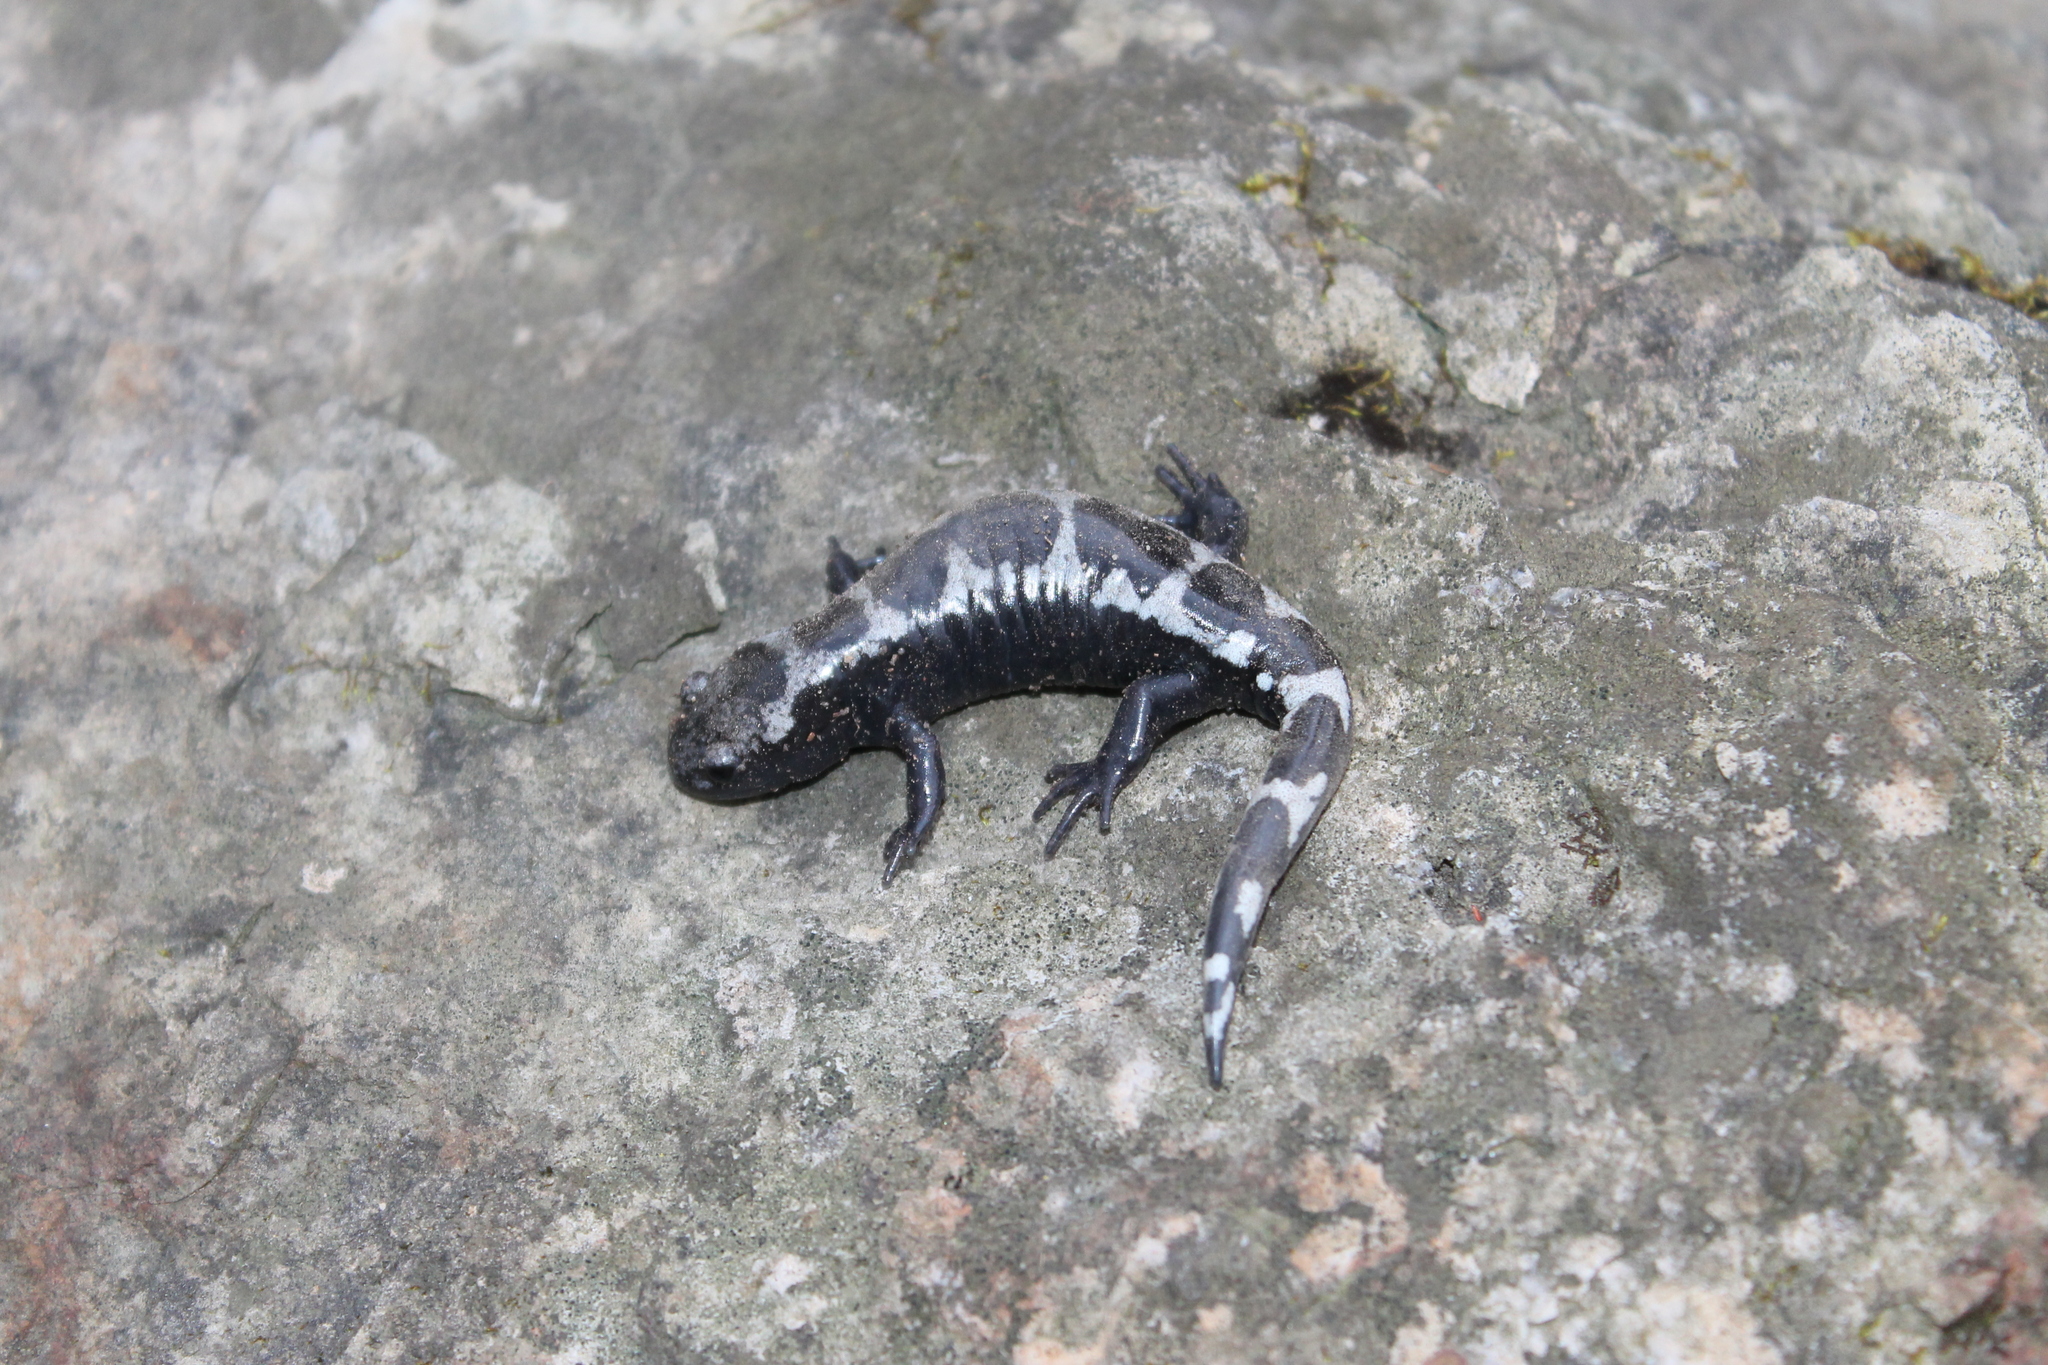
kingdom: Animalia
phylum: Chordata
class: Amphibia
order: Caudata
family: Ambystomatidae
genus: Ambystoma
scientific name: Ambystoma opacum
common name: Marbled salamander
